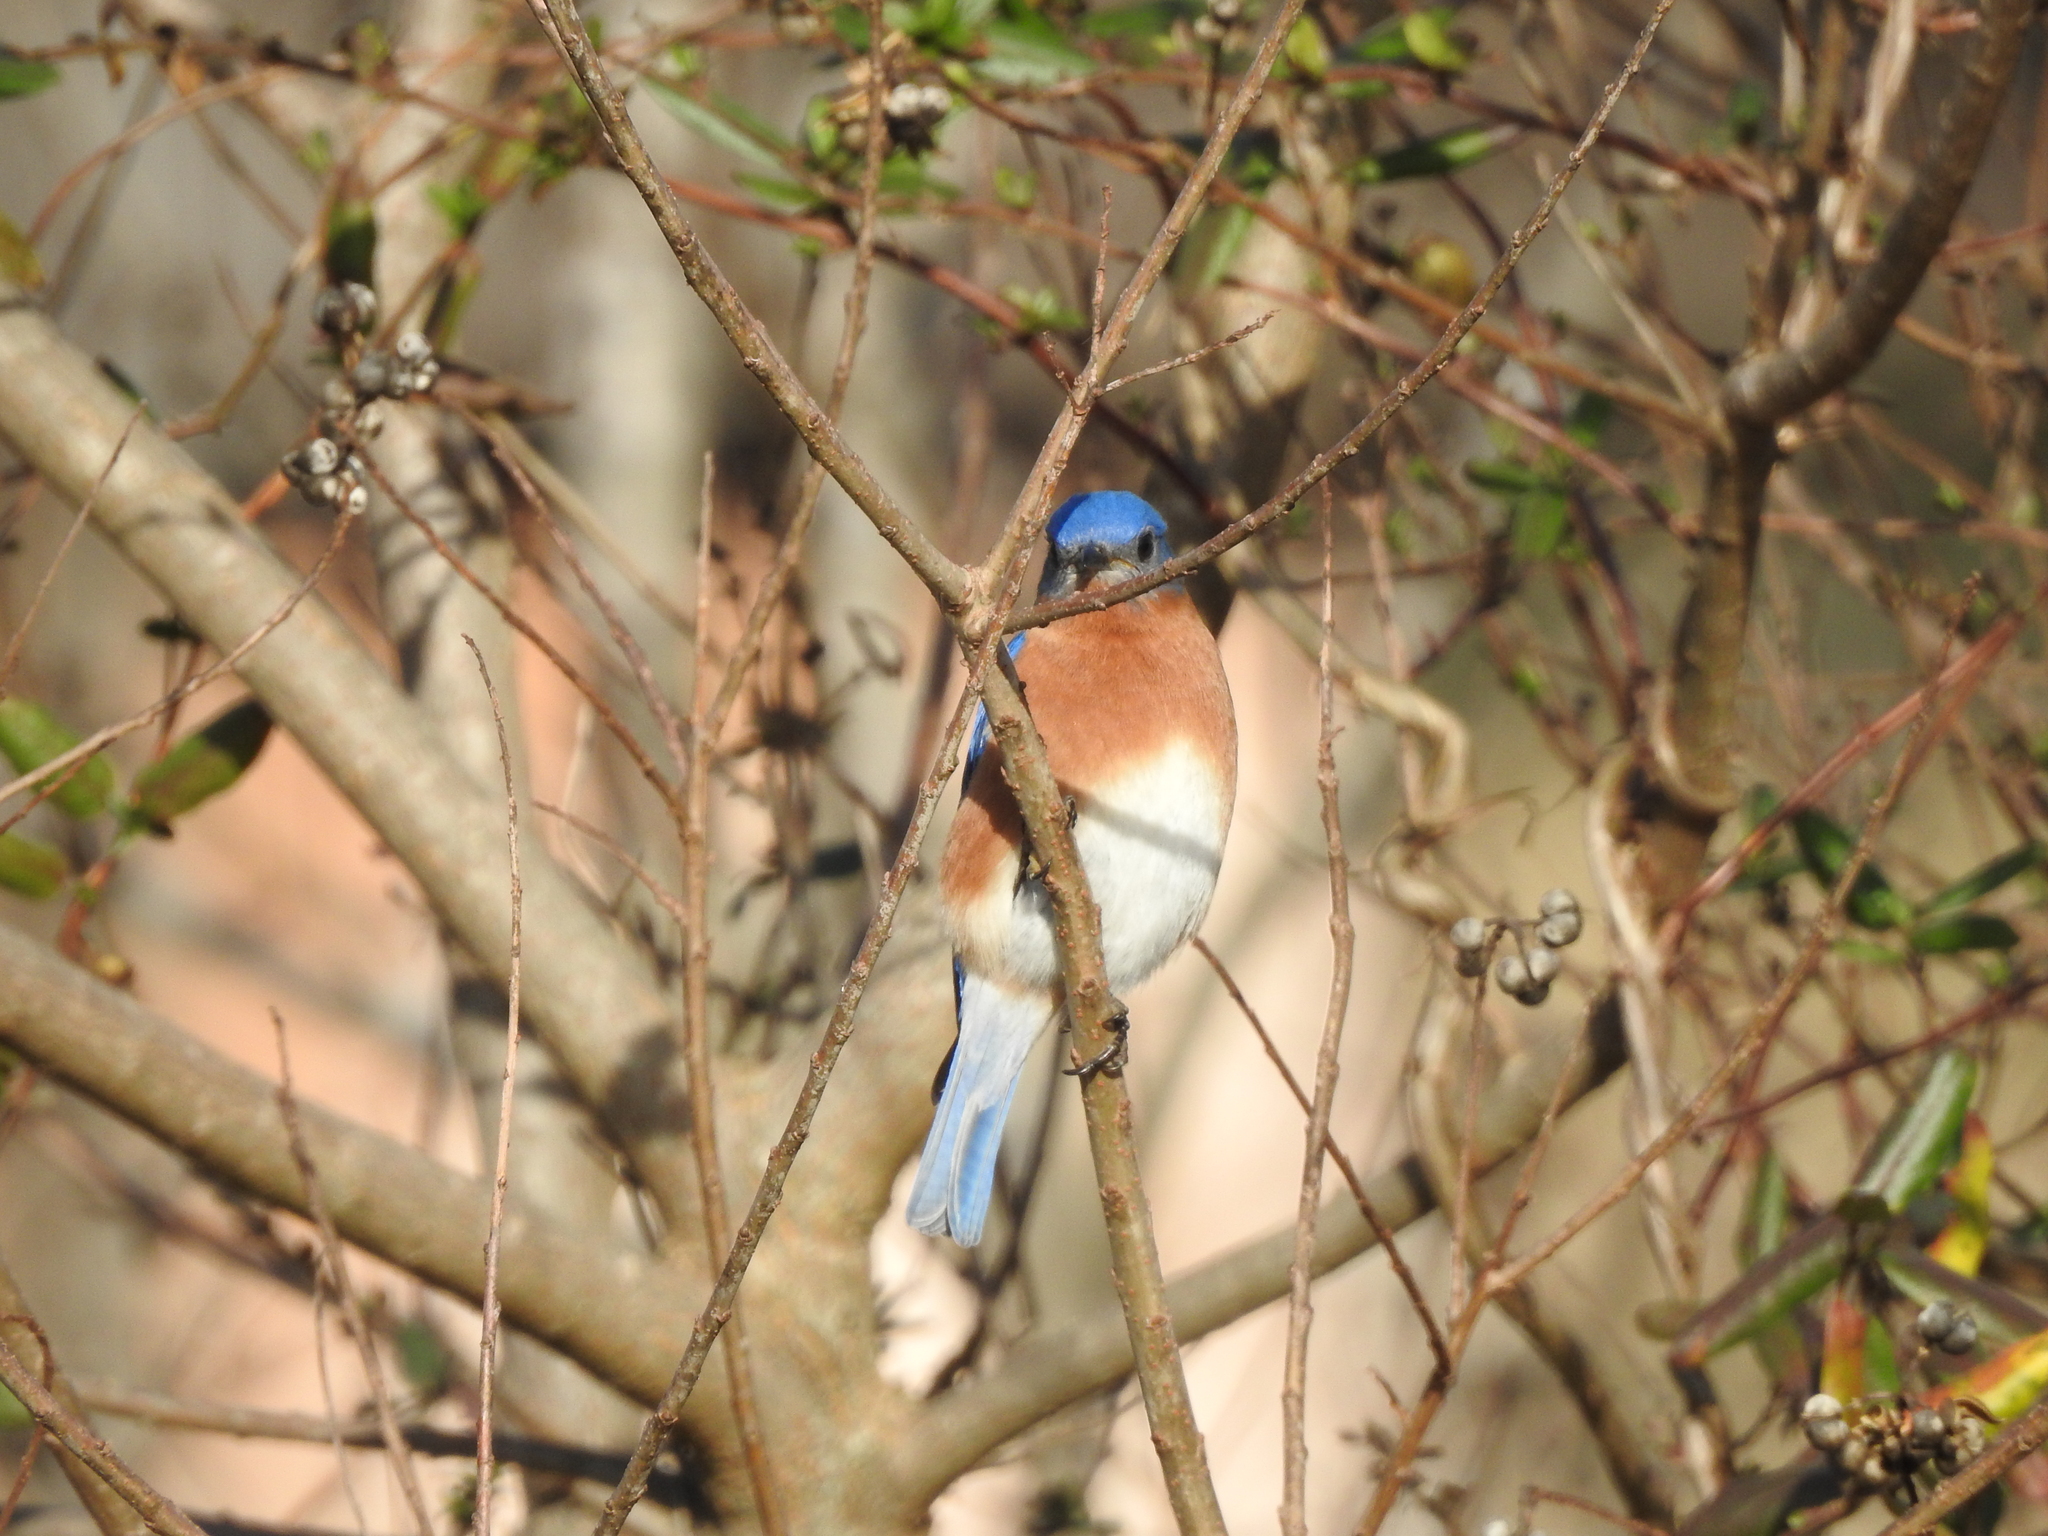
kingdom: Animalia
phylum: Chordata
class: Aves
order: Passeriformes
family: Turdidae
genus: Sialia
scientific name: Sialia sialis
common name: Eastern bluebird
